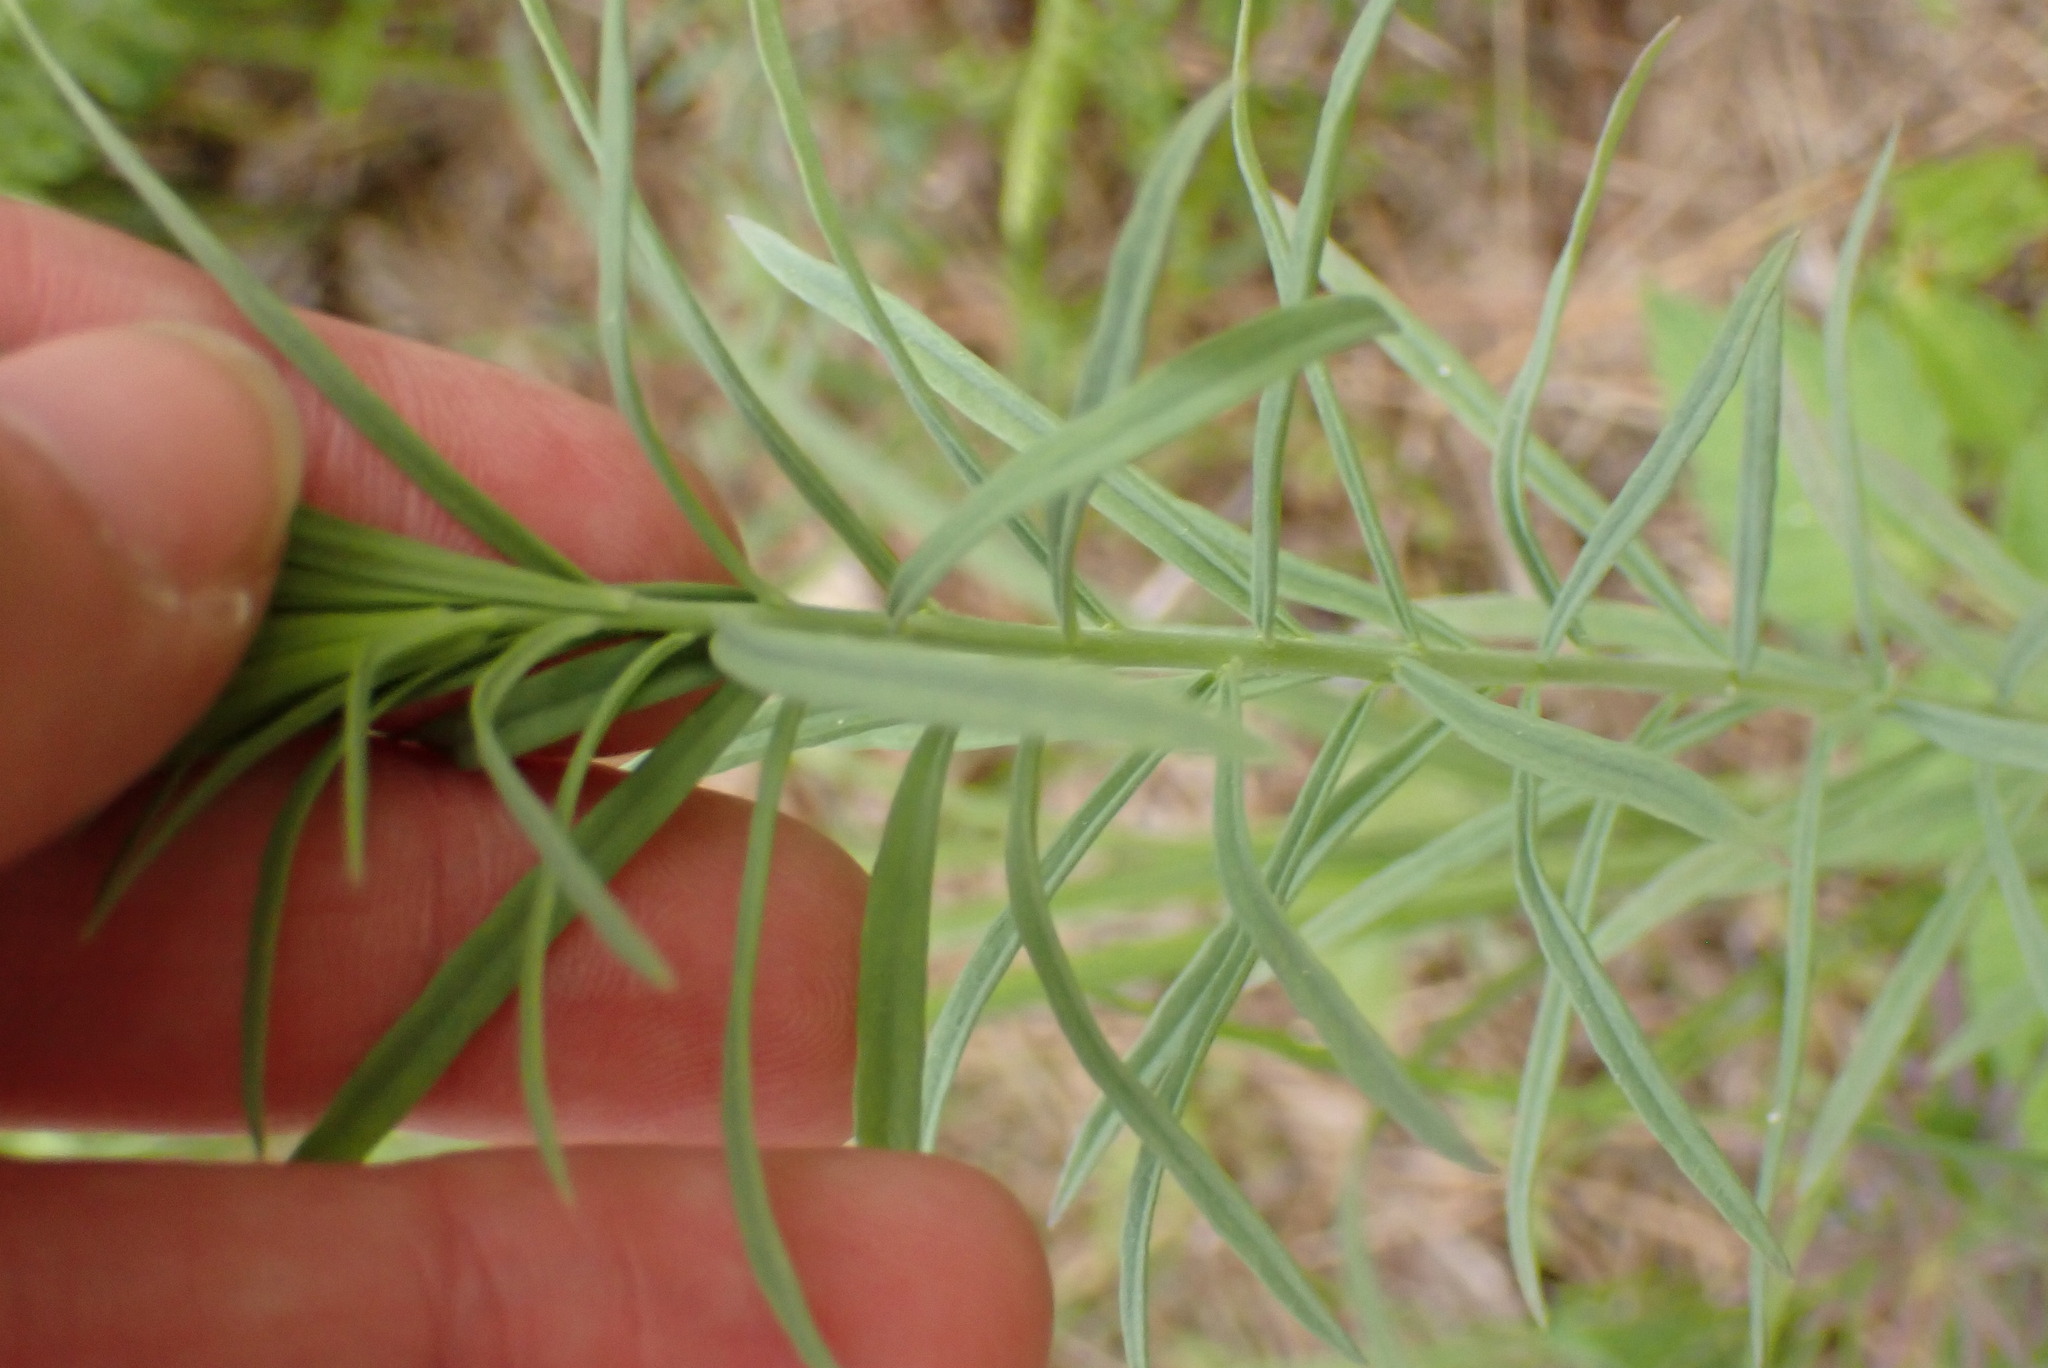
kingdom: Plantae
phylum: Tracheophyta
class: Magnoliopsida
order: Lamiales
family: Plantaginaceae
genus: Linaria
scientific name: Linaria vulgaris
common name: Butter and eggs
